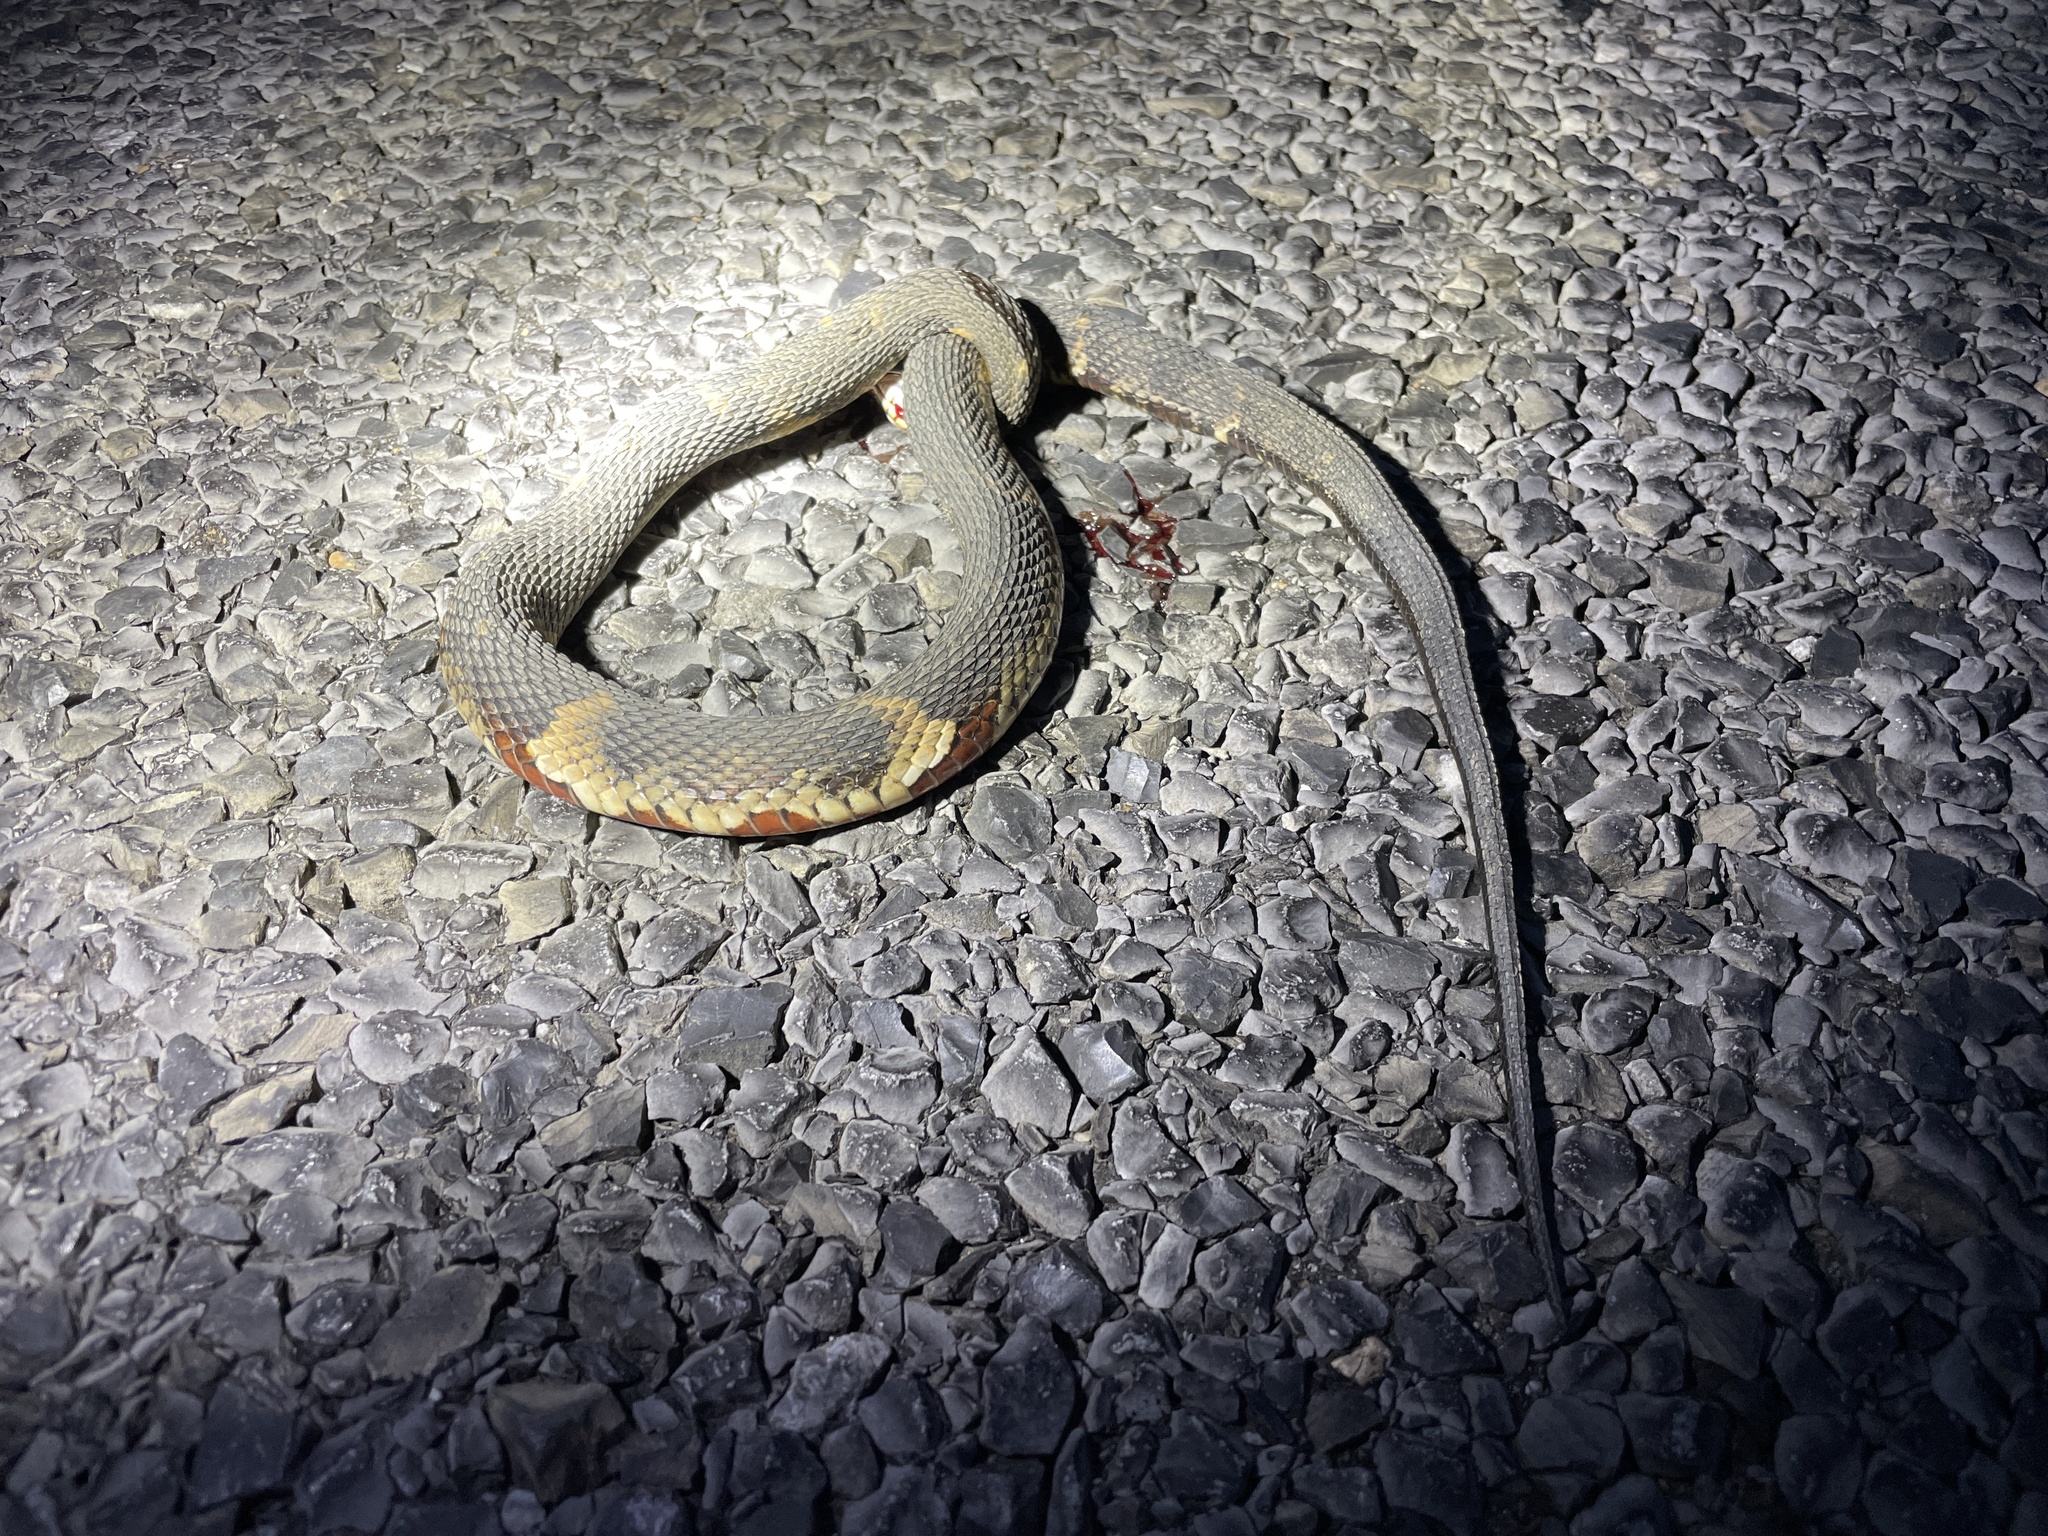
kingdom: Animalia
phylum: Chordata
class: Squamata
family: Colubridae
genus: Nerodia
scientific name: Nerodia fasciata
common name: Southern water snake
